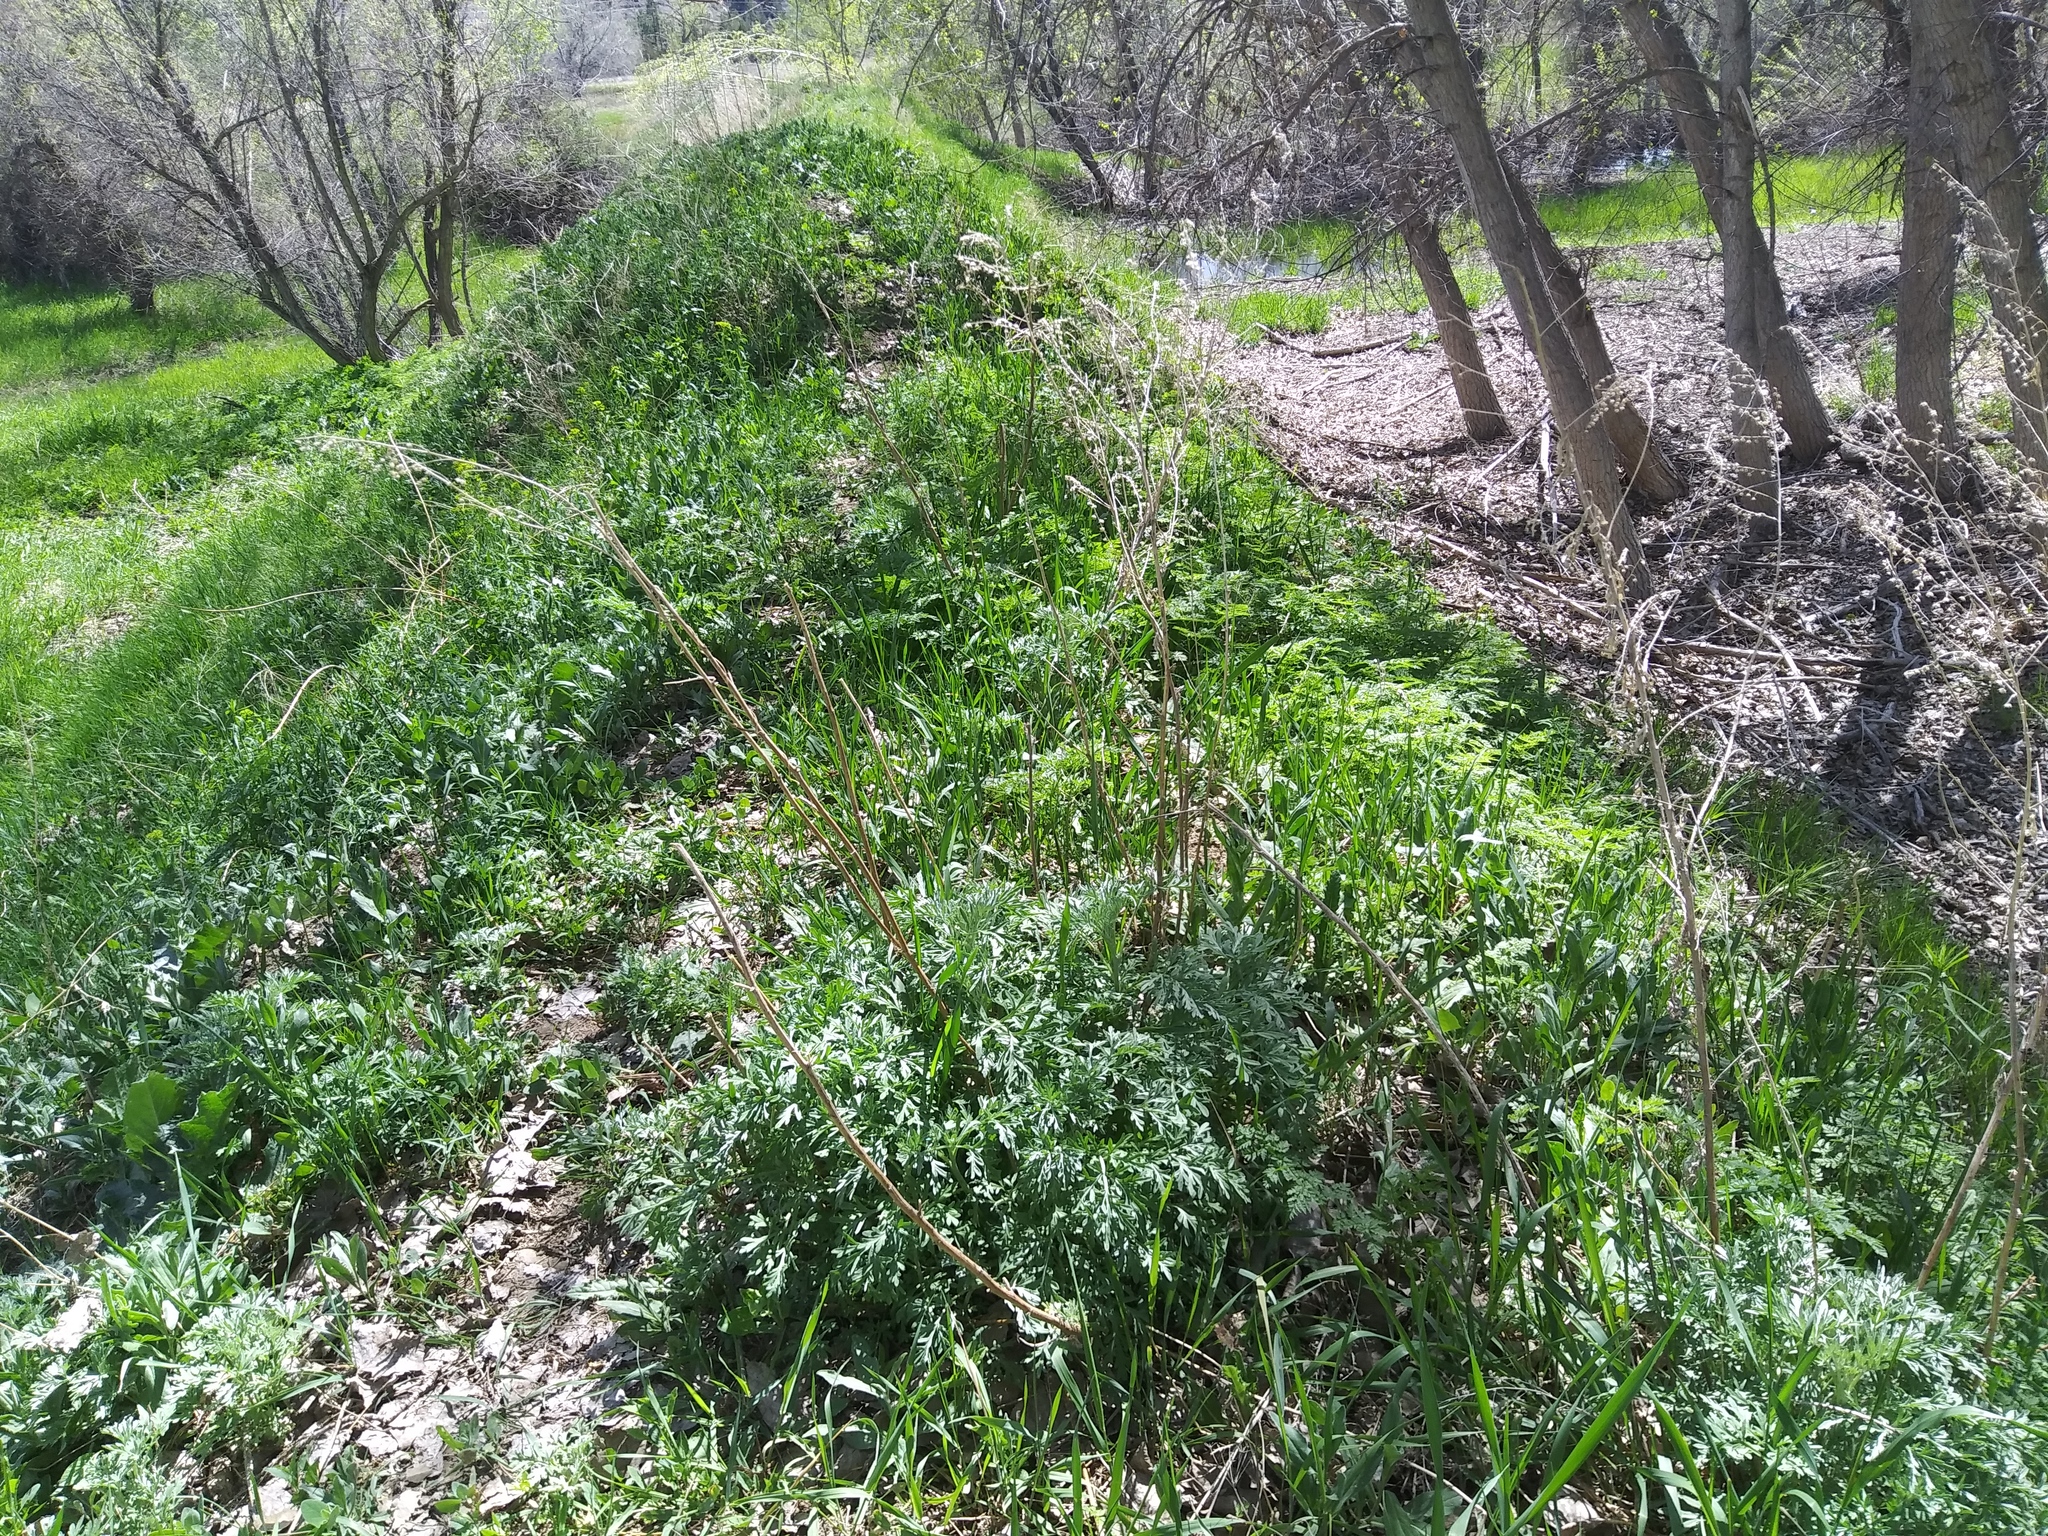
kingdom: Plantae
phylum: Tracheophyta
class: Magnoliopsida
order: Asterales
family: Asteraceae
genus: Artemisia
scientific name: Artemisia absinthium
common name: Wormwood
